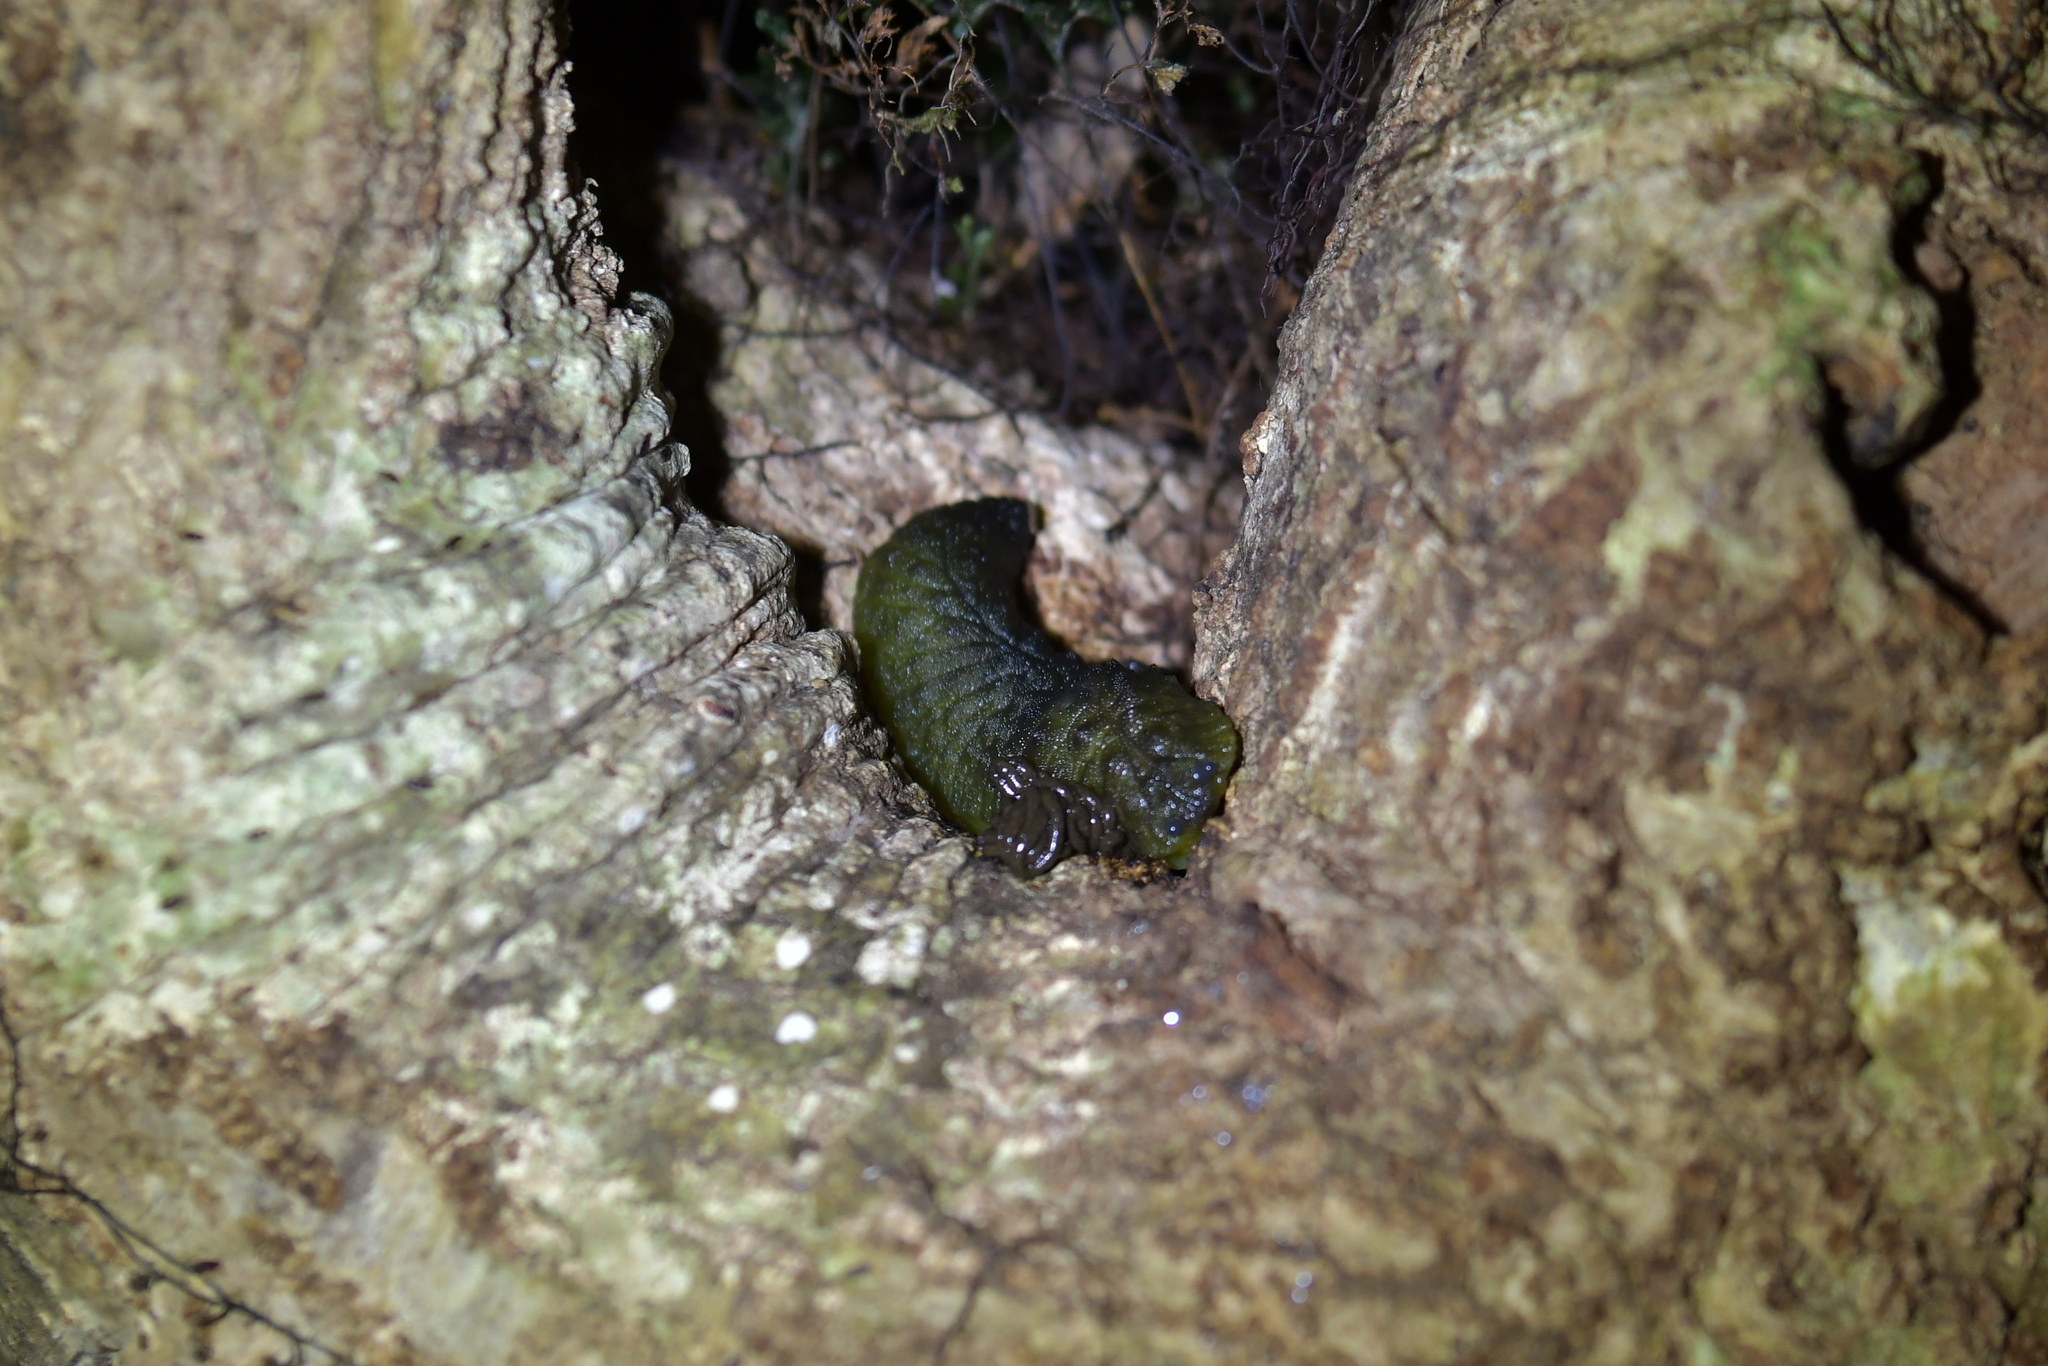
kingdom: Animalia
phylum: Mollusca
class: Gastropoda
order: Stylommatophora
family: Athoracophoridae
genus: Athoracophorus
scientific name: Athoracophorus papillatus
